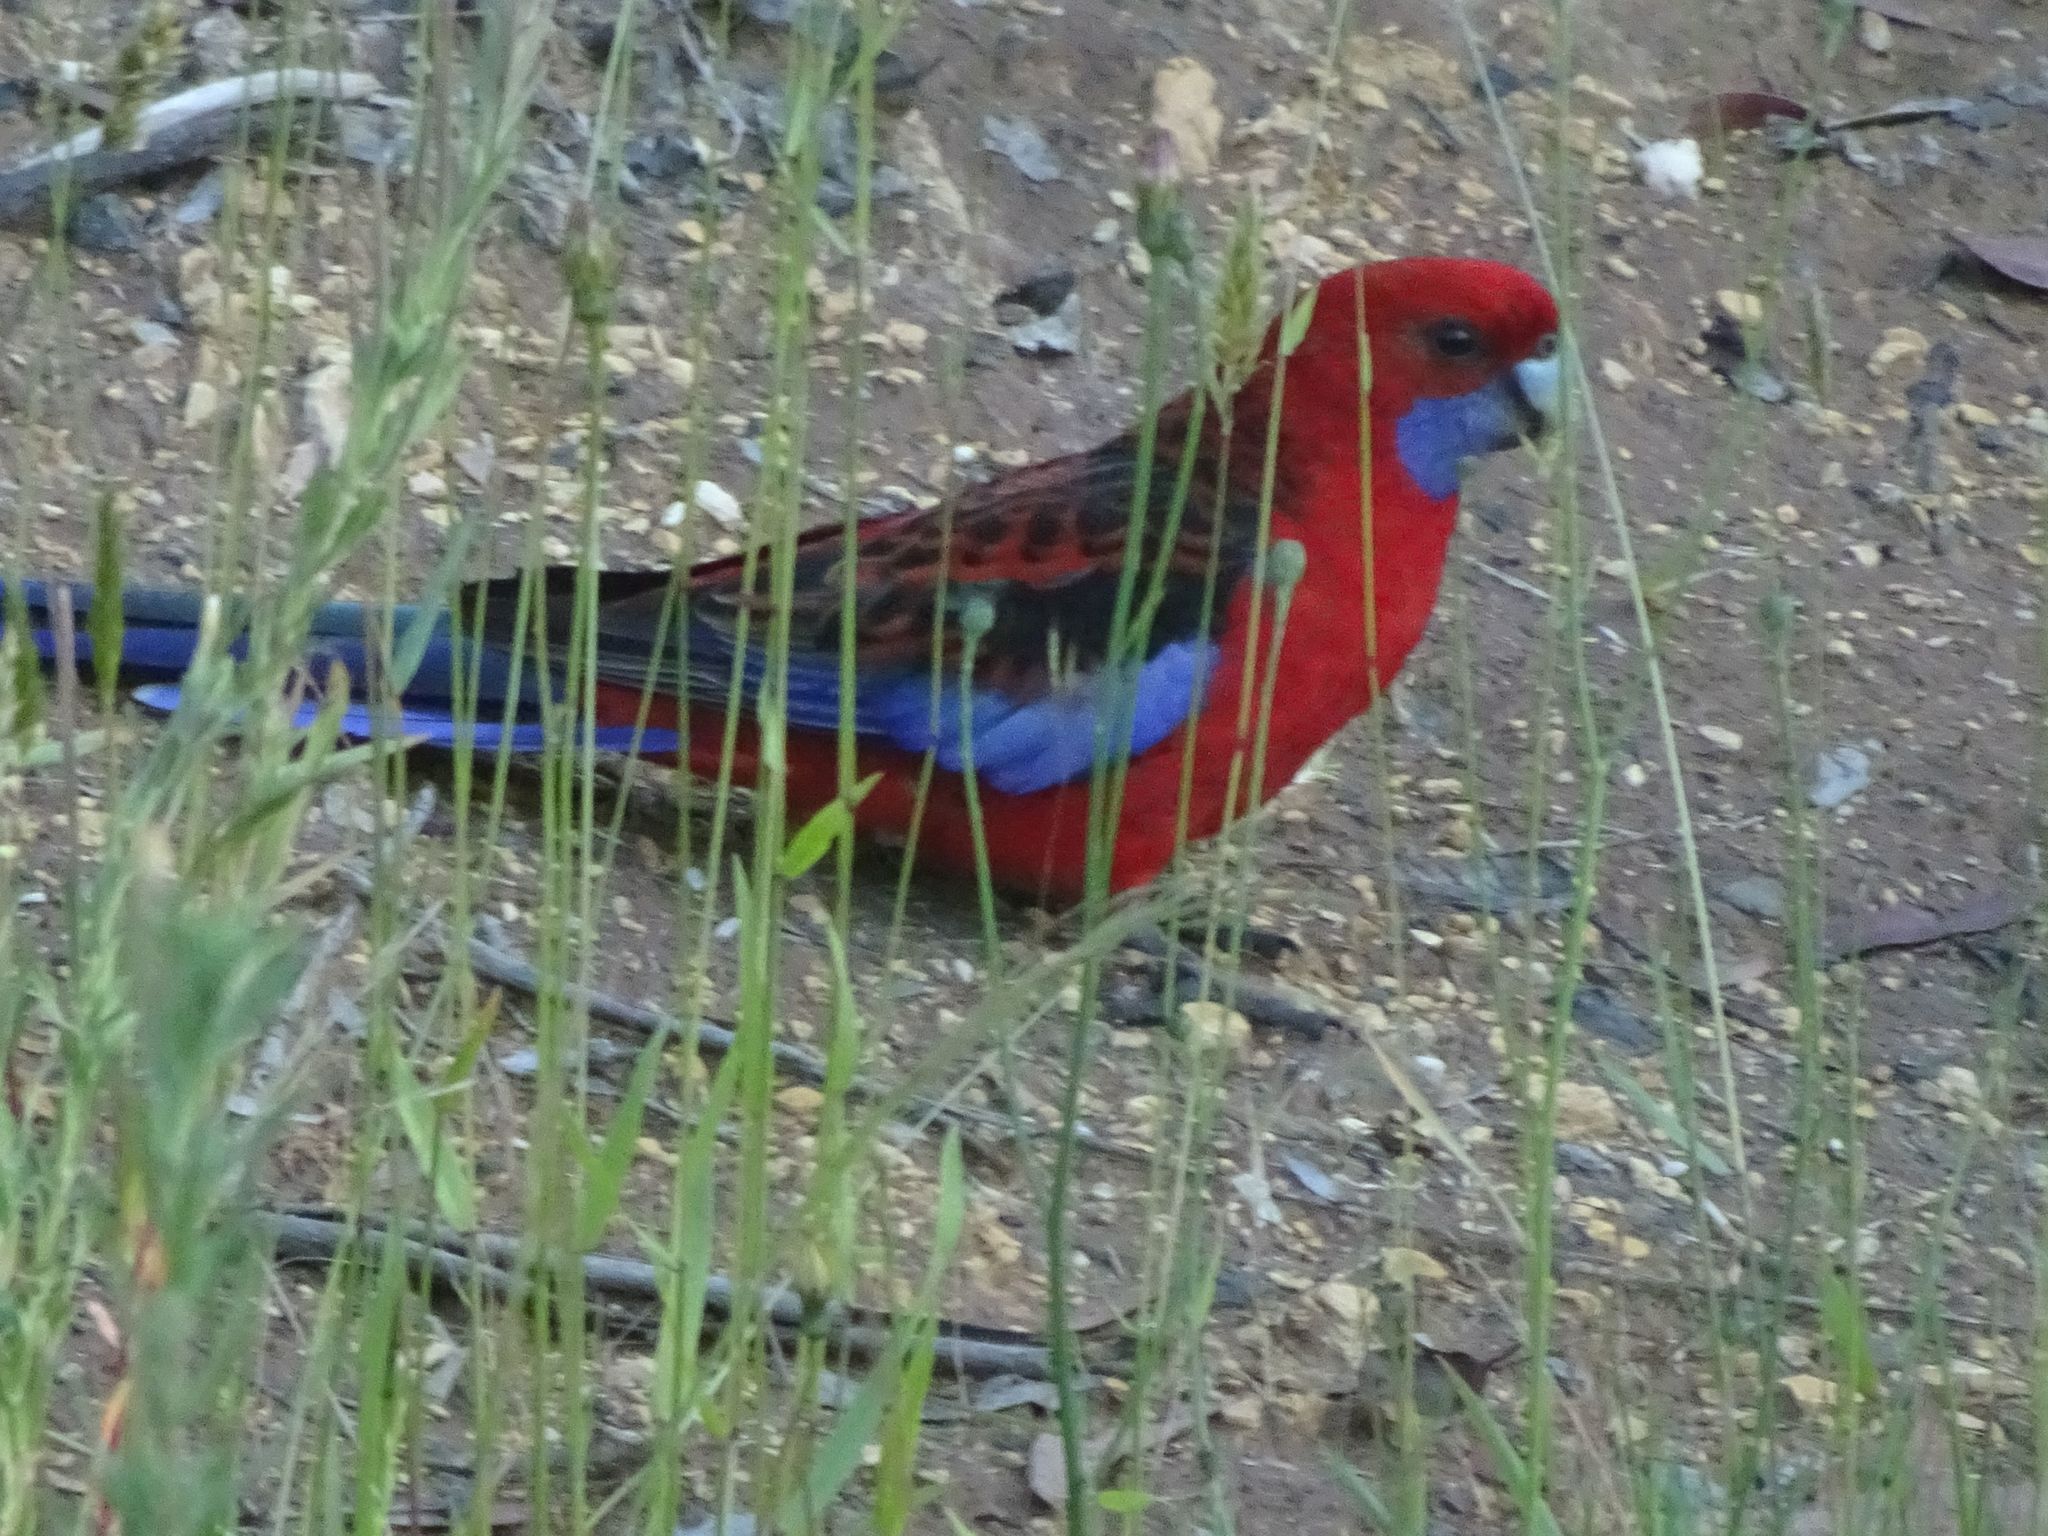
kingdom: Animalia
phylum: Chordata
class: Aves
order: Psittaciformes
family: Psittacidae
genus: Platycercus
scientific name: Platycercus elegans
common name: Crimson rosella
